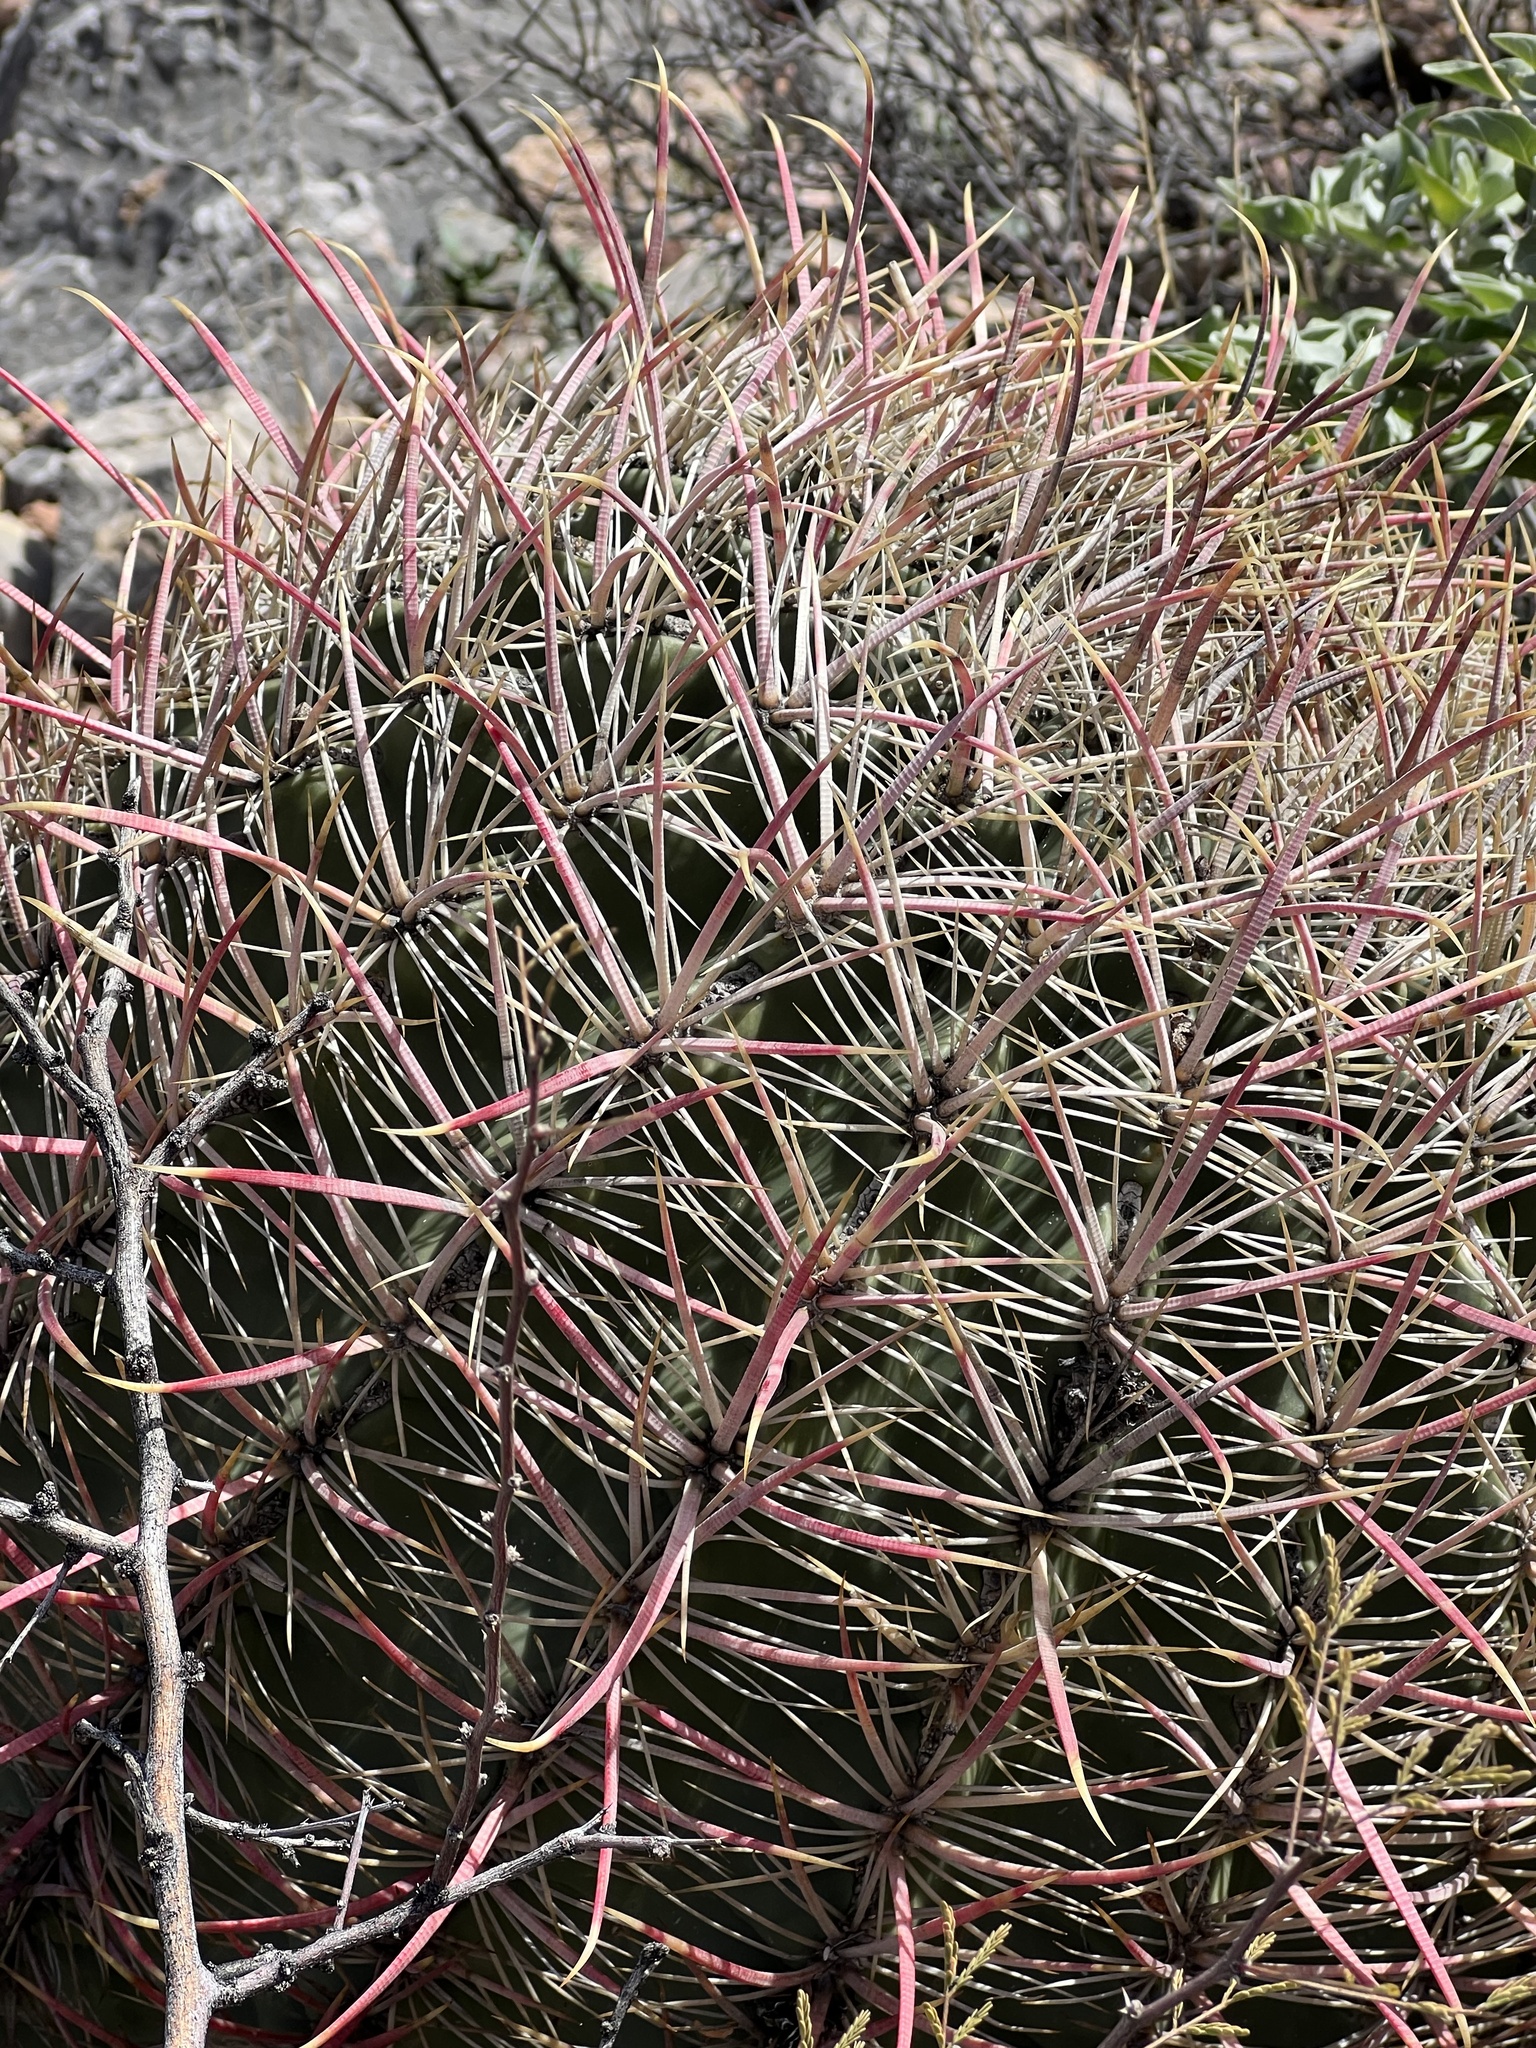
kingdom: Plantae
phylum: Tracheophyta
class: Magnoliopsida
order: Caryophyllales
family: Cactaceae
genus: Ferocactus
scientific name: Ferocactus cylindraceus
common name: California barrel cactus
